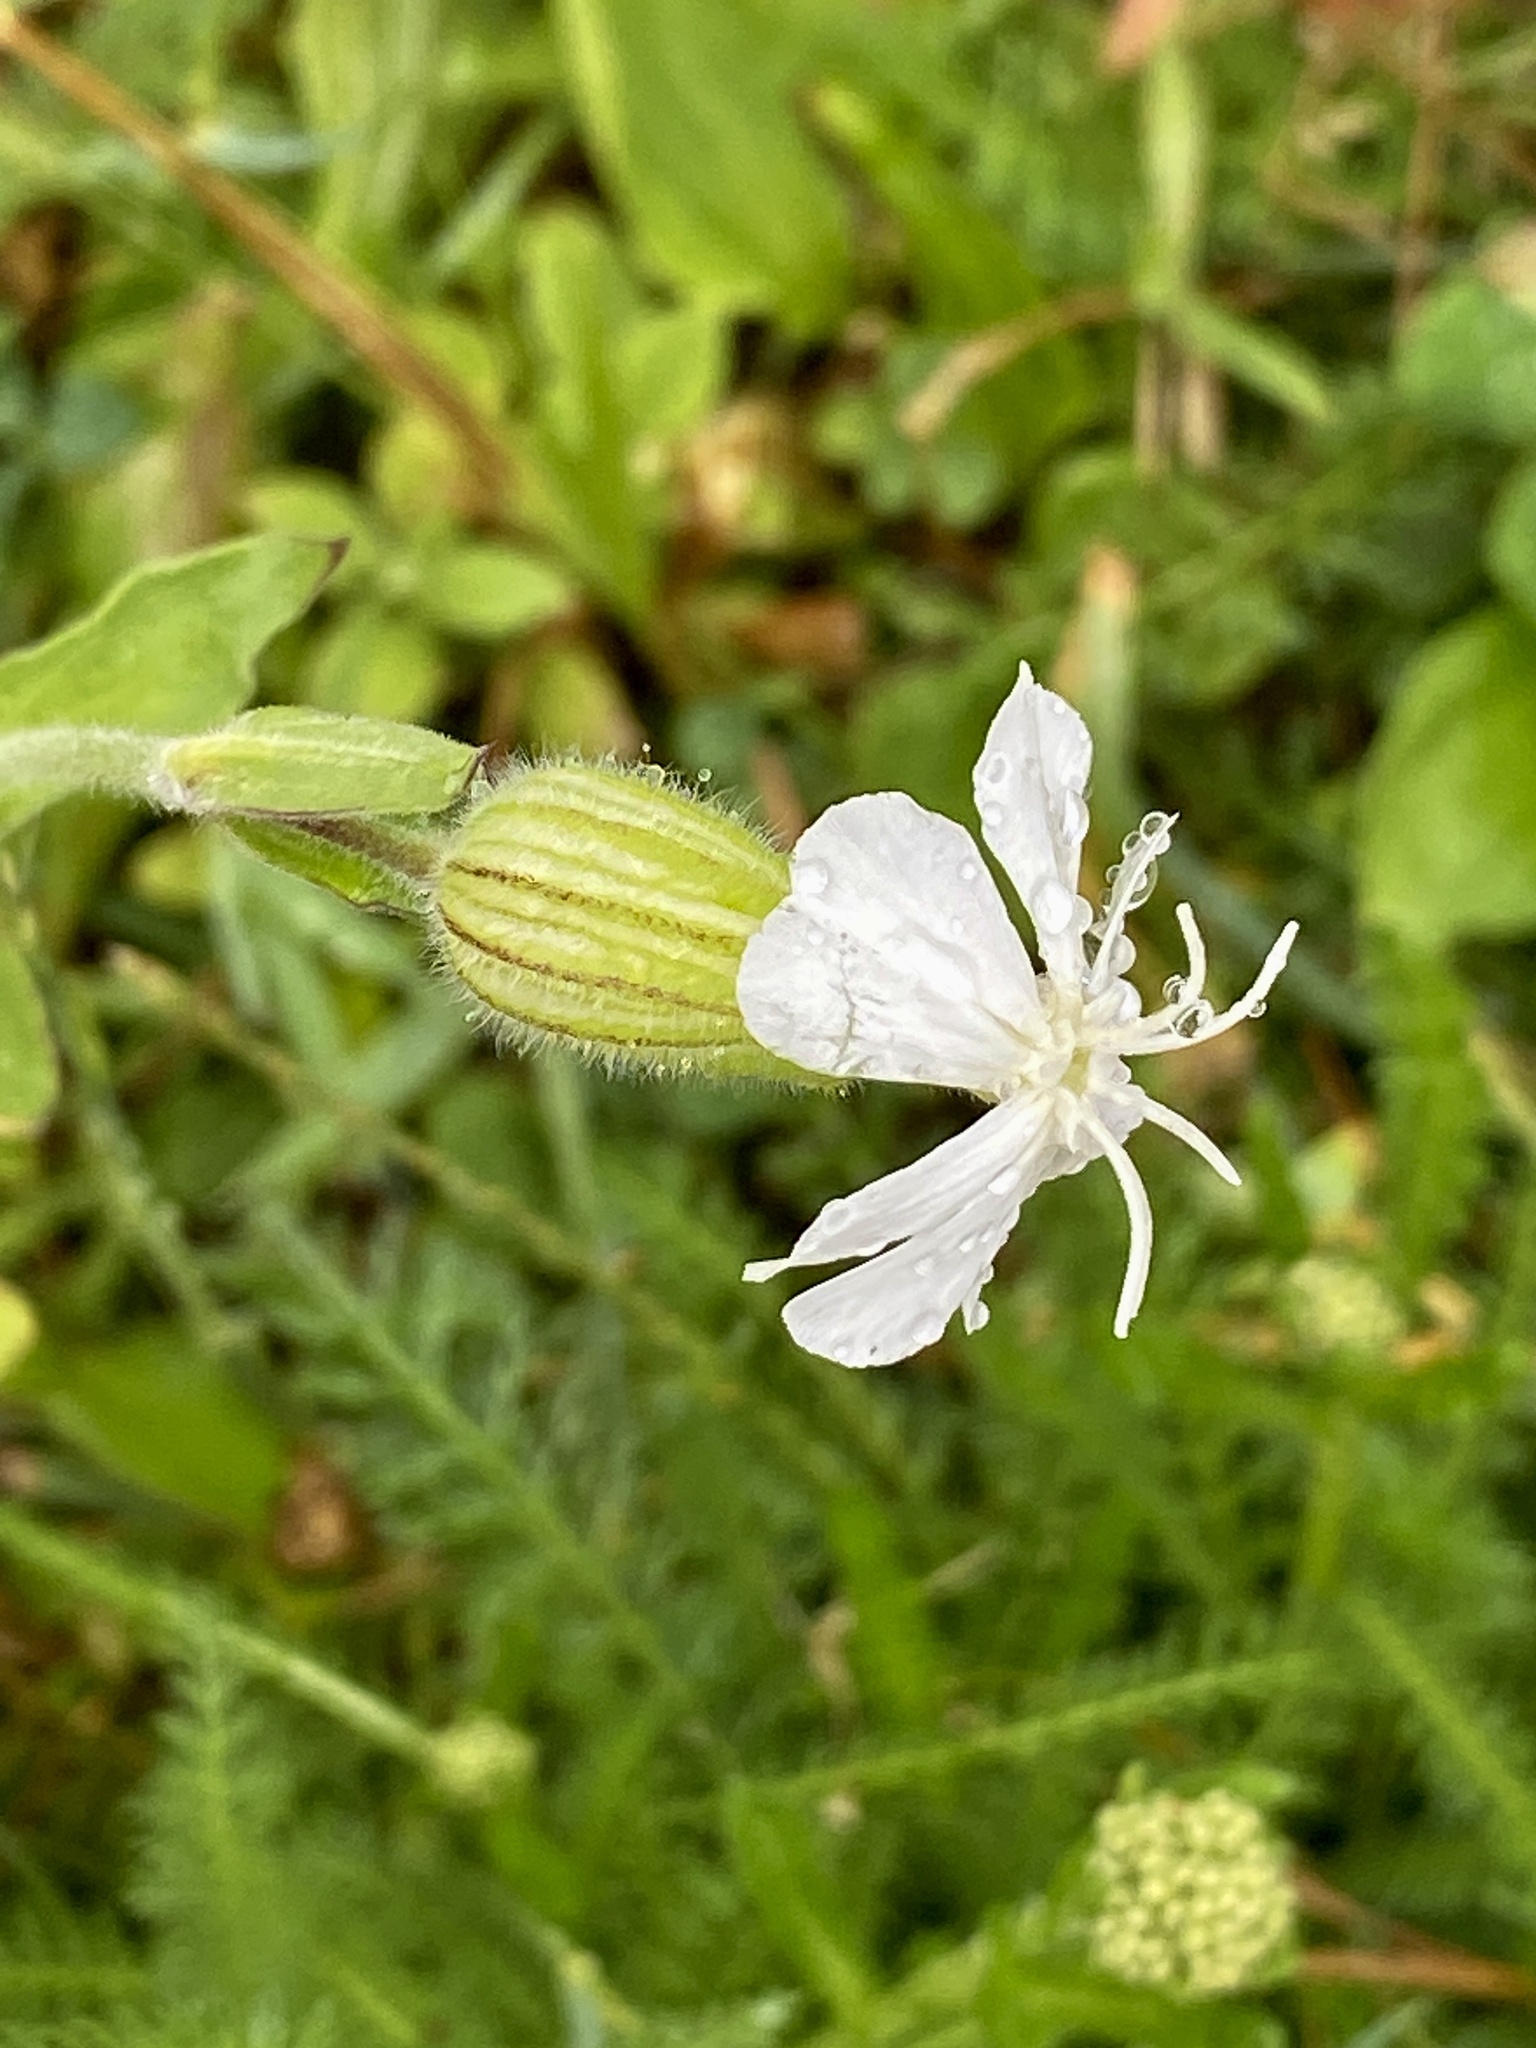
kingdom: Plantae
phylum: Tracheophyta
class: Magnoliopsida
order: Caryophyllales
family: Caryophyllaceae
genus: Silene
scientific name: Silene latifolia
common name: White campion
